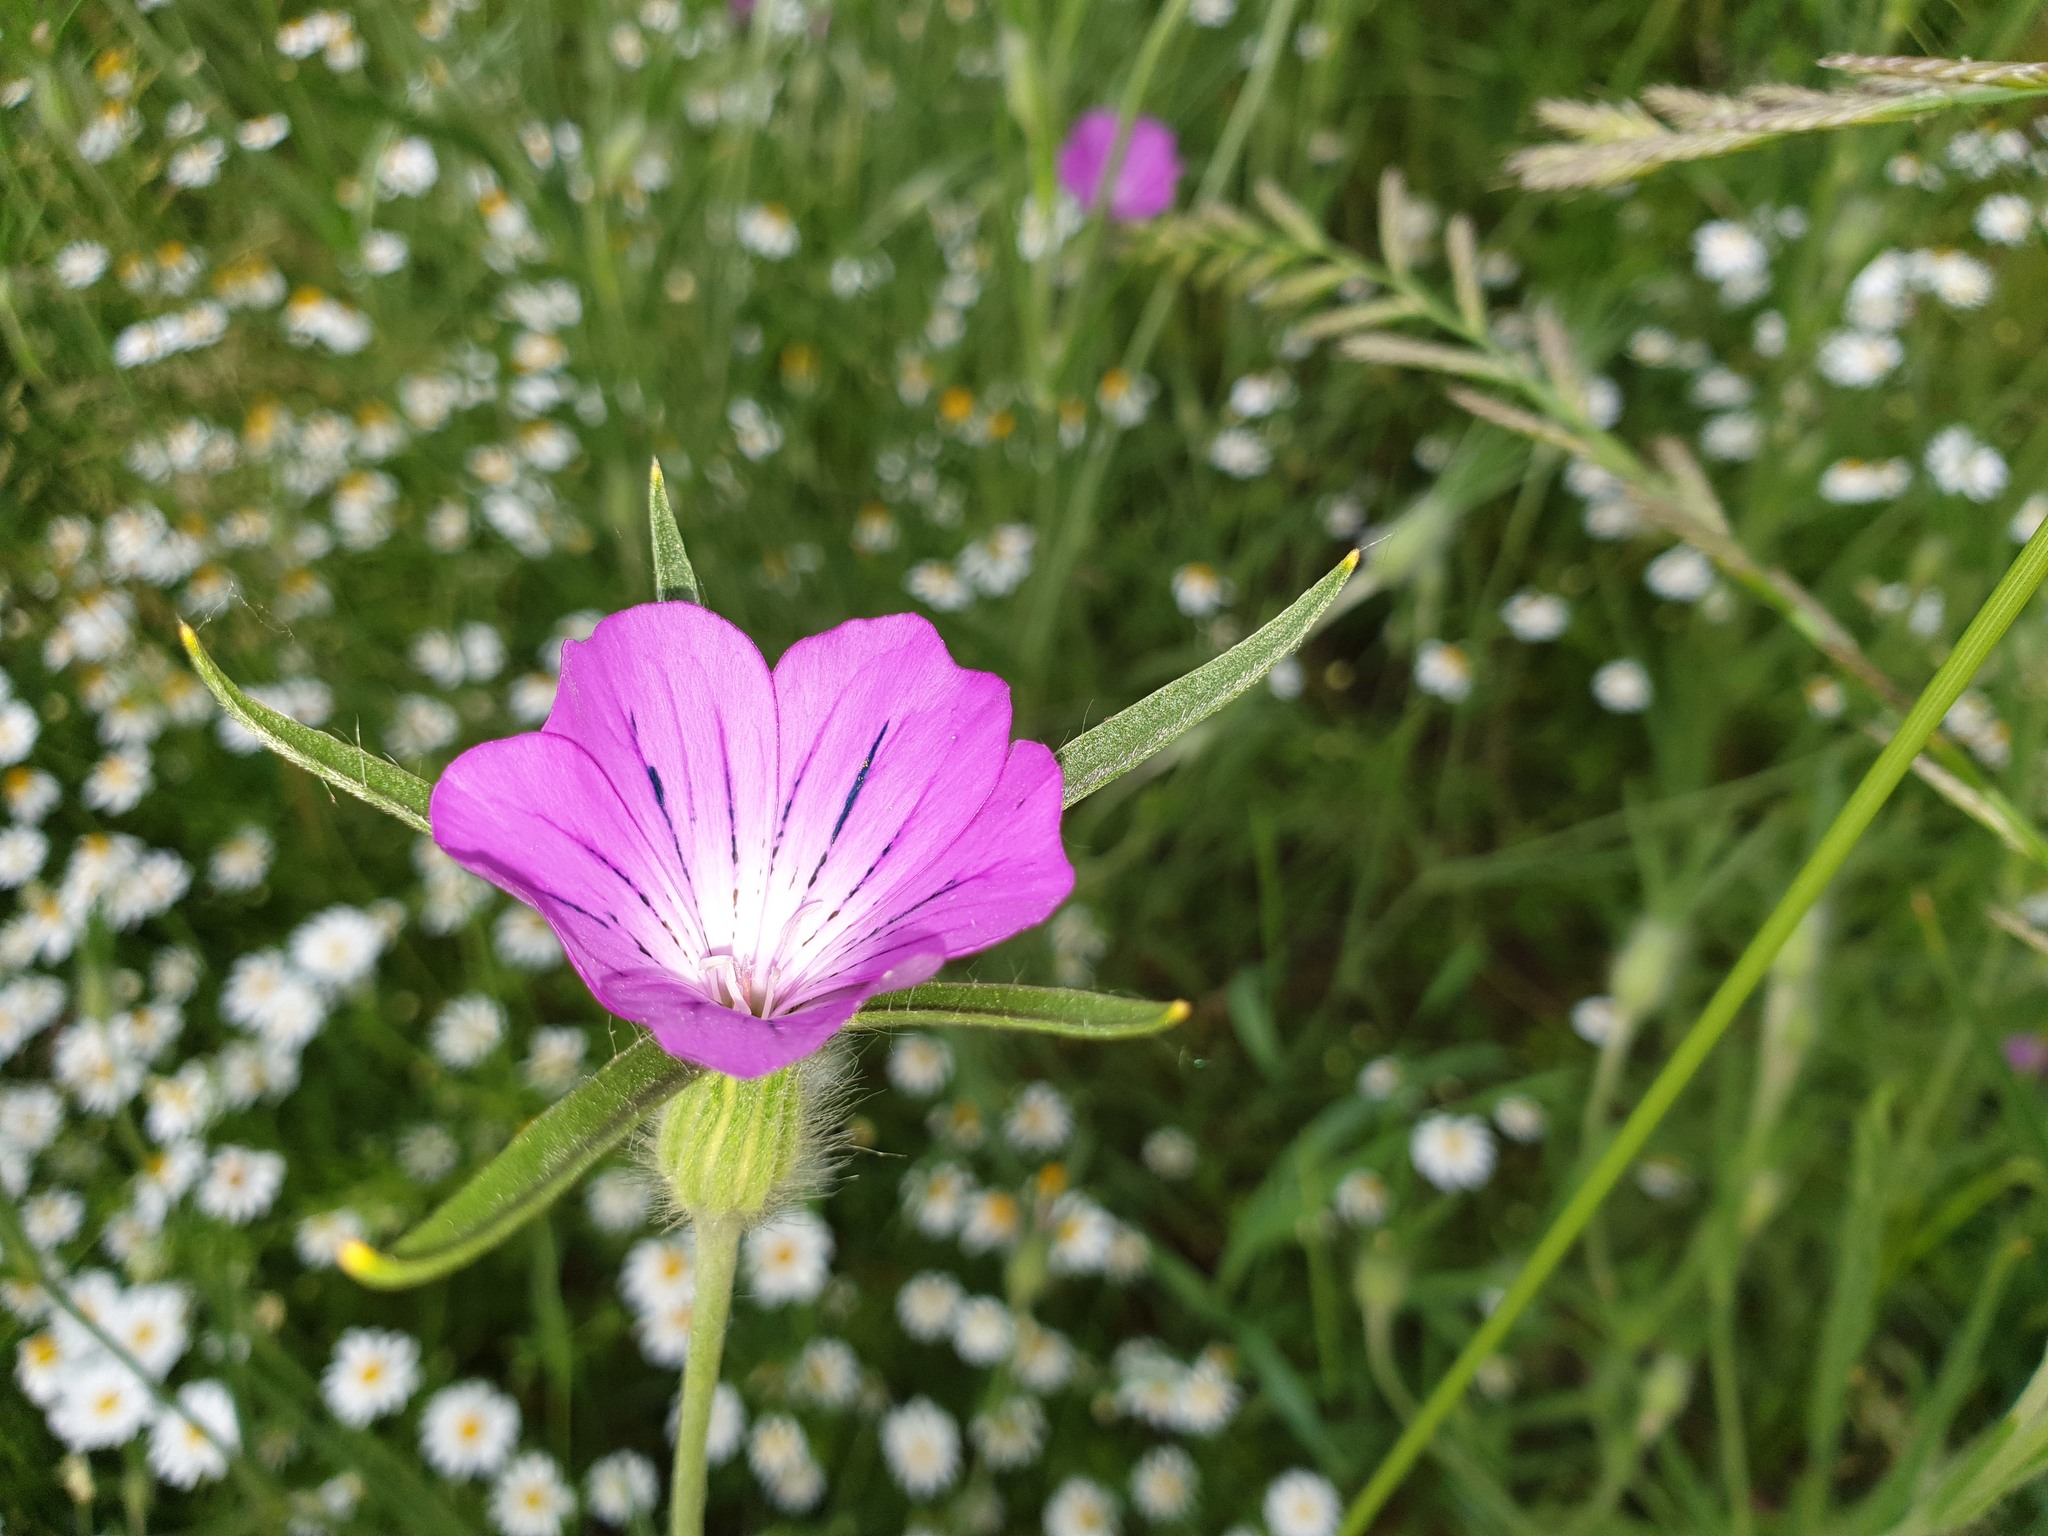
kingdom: Plantae
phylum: Tracheophyta
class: Magnoliopsida
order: Caryophyllales
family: Caryophyllaceae
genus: Agrostemma
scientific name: Agrostemma githago
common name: Common corncockle
